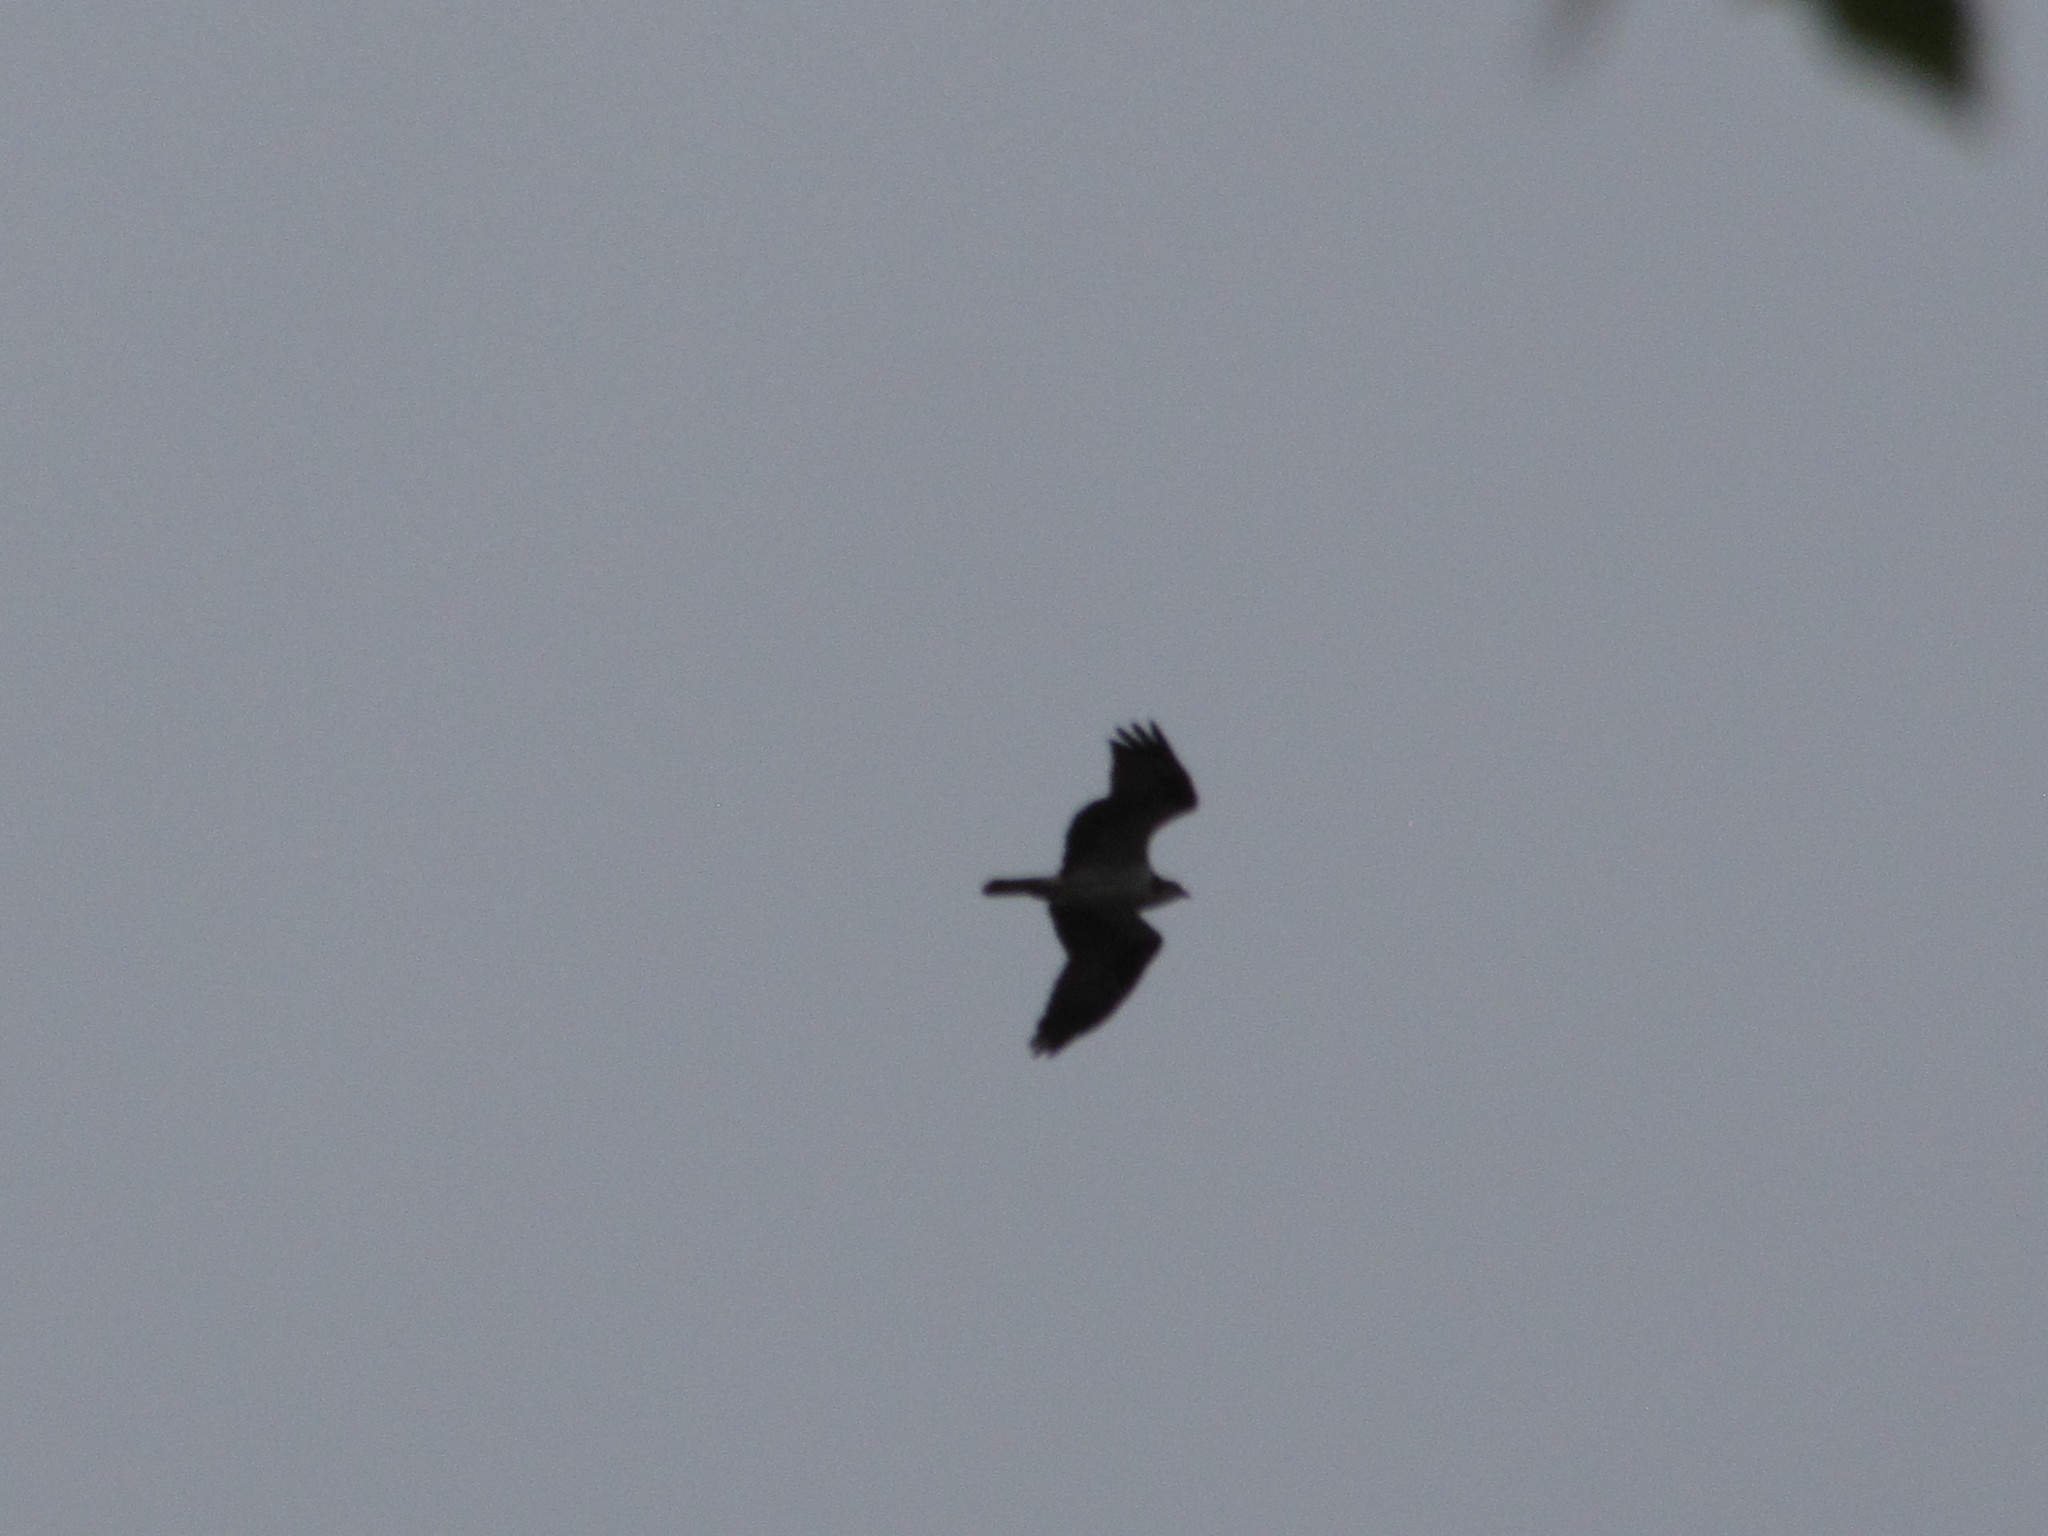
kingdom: Animalia
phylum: Chordata
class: Aves
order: Accipitriformes
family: Pandionidae
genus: Pandion
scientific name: Pandion haliaetus
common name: Osprey
